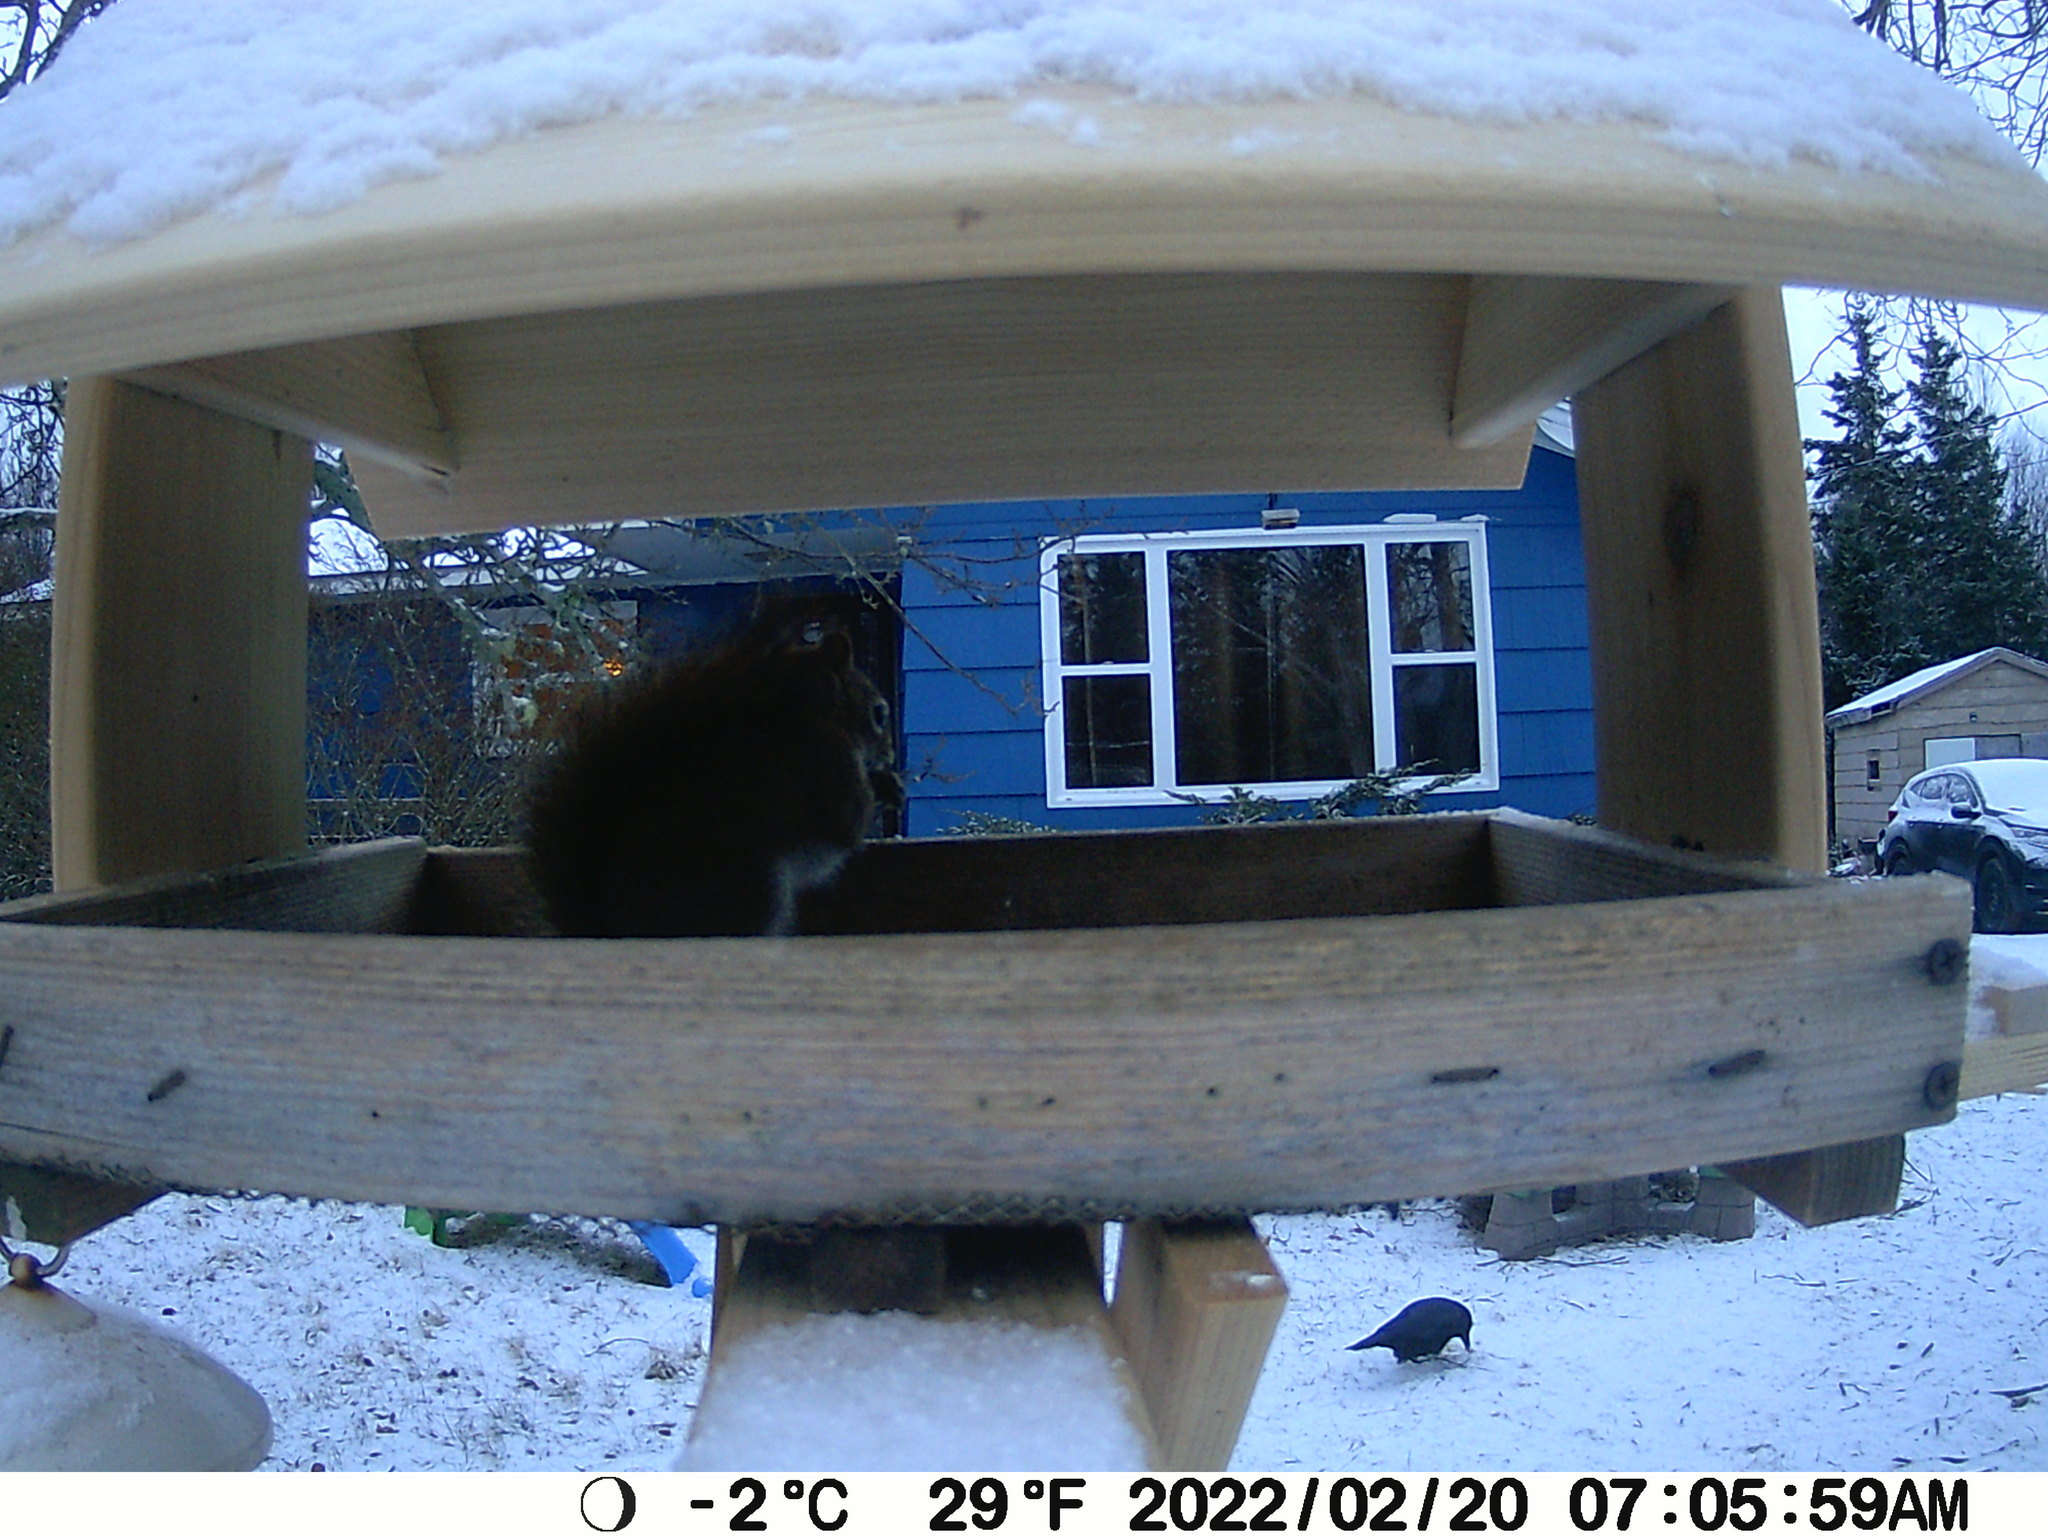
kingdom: Animalia
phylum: Chordata
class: Aves
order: Passeriformes
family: Corvidae
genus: Corvus
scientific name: Corvus brachyrhynchos
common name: American crow
